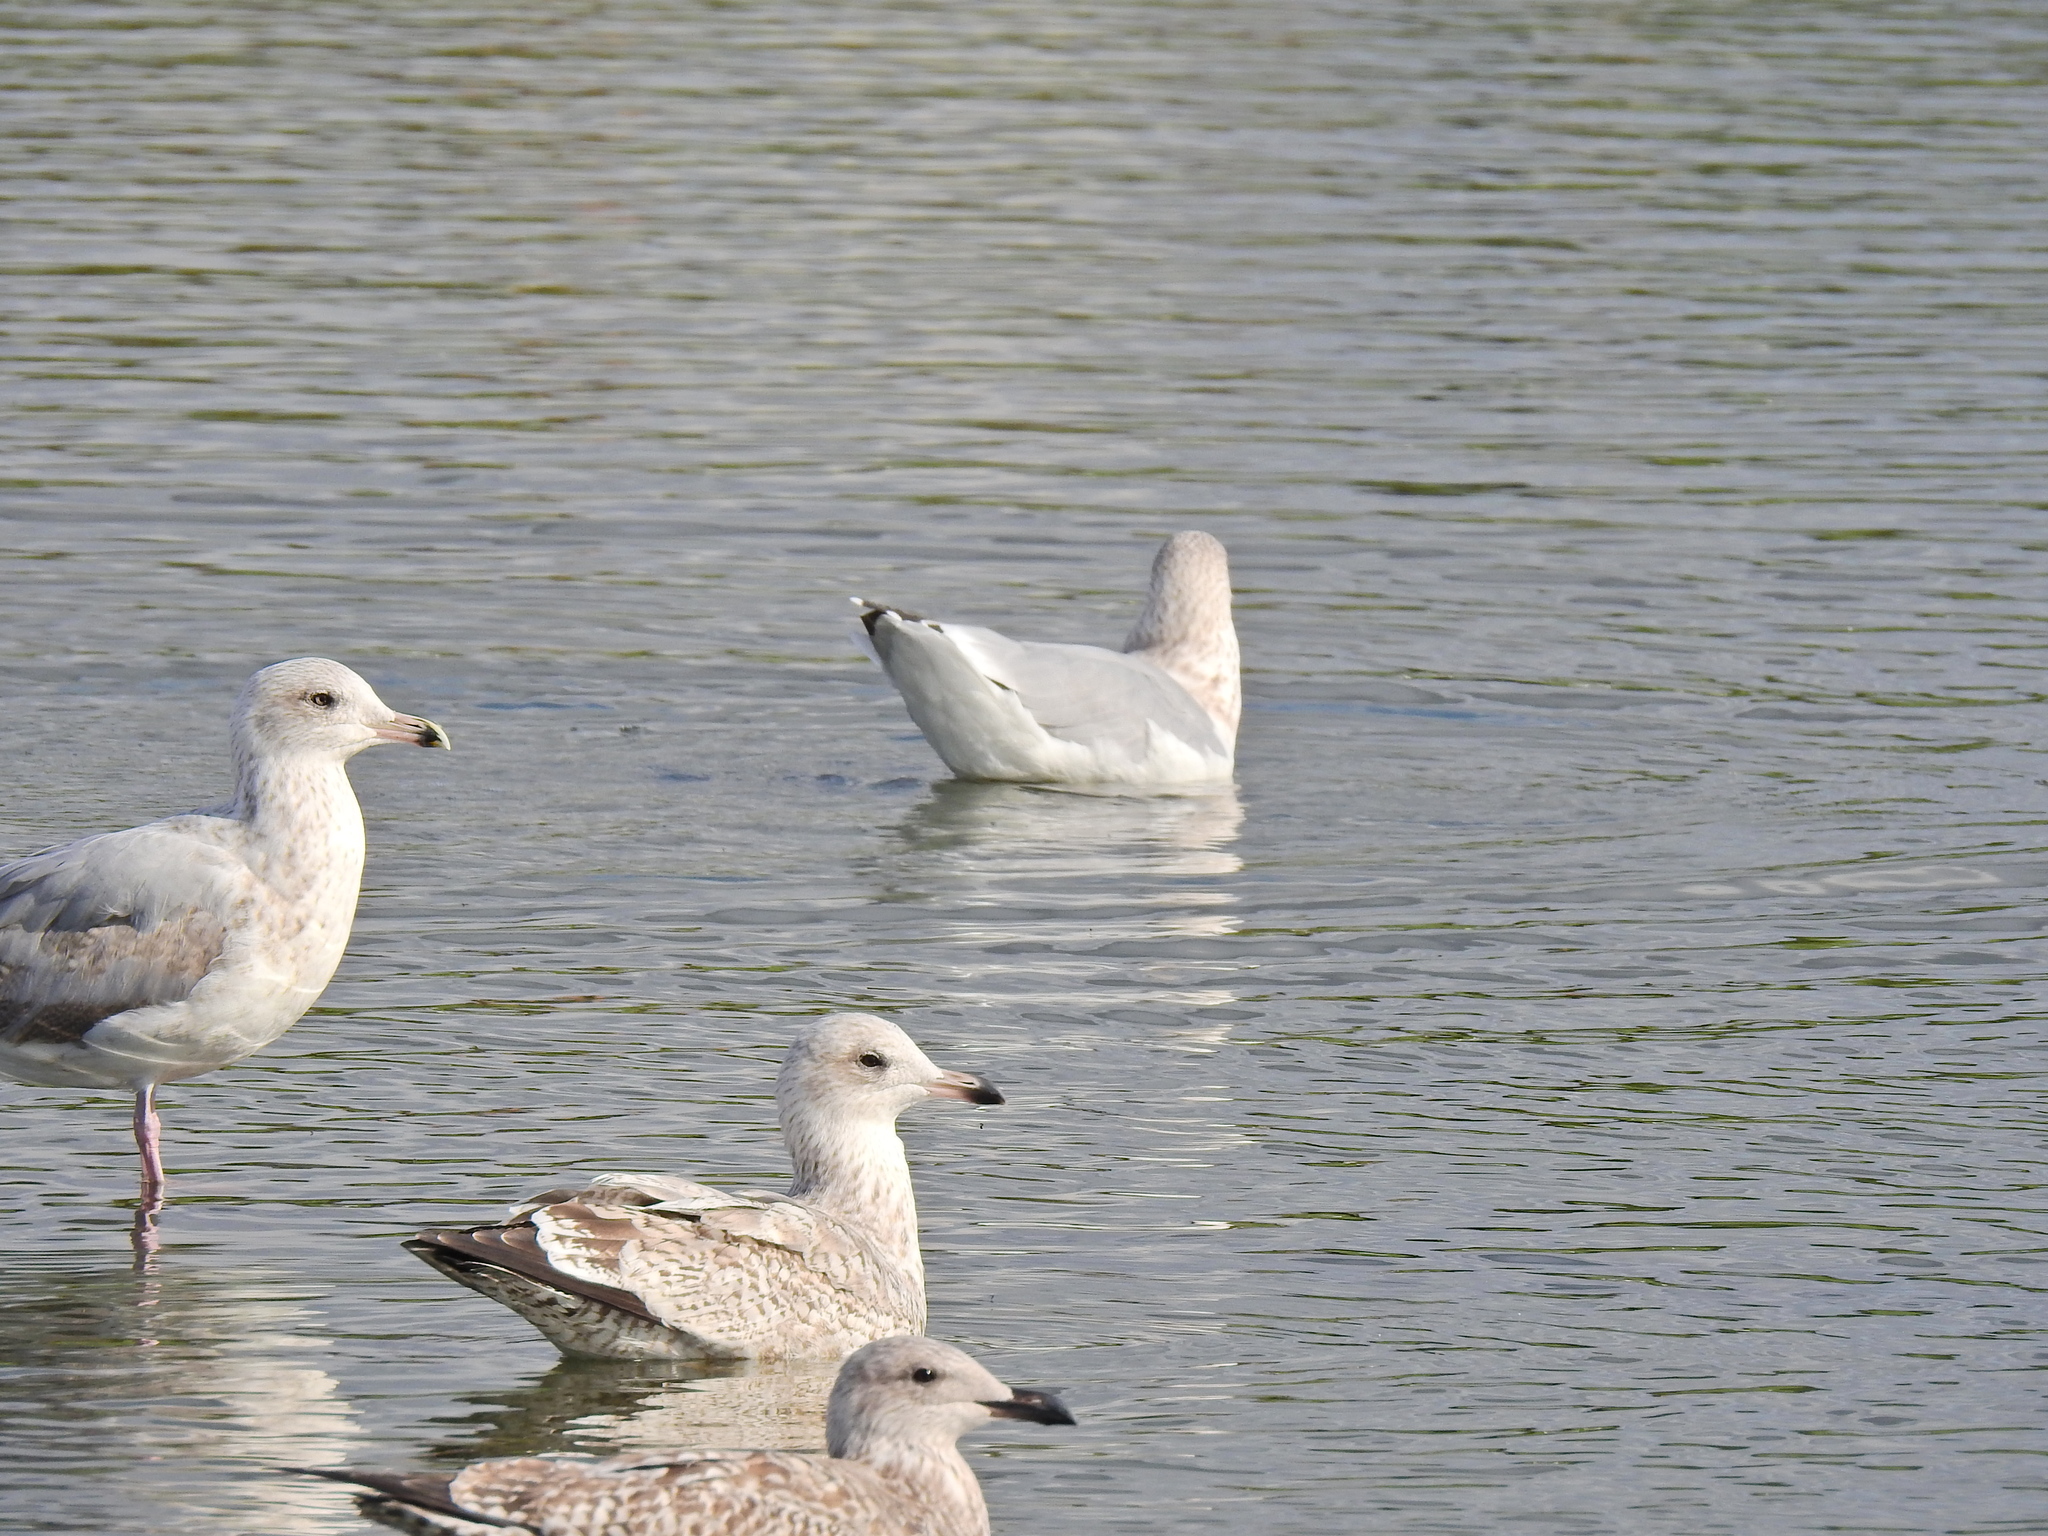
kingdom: Animalia
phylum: Chordata
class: Aves
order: Charadriiformes
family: Laridae
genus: Larus
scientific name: Larus argentatus
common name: Herring gull
